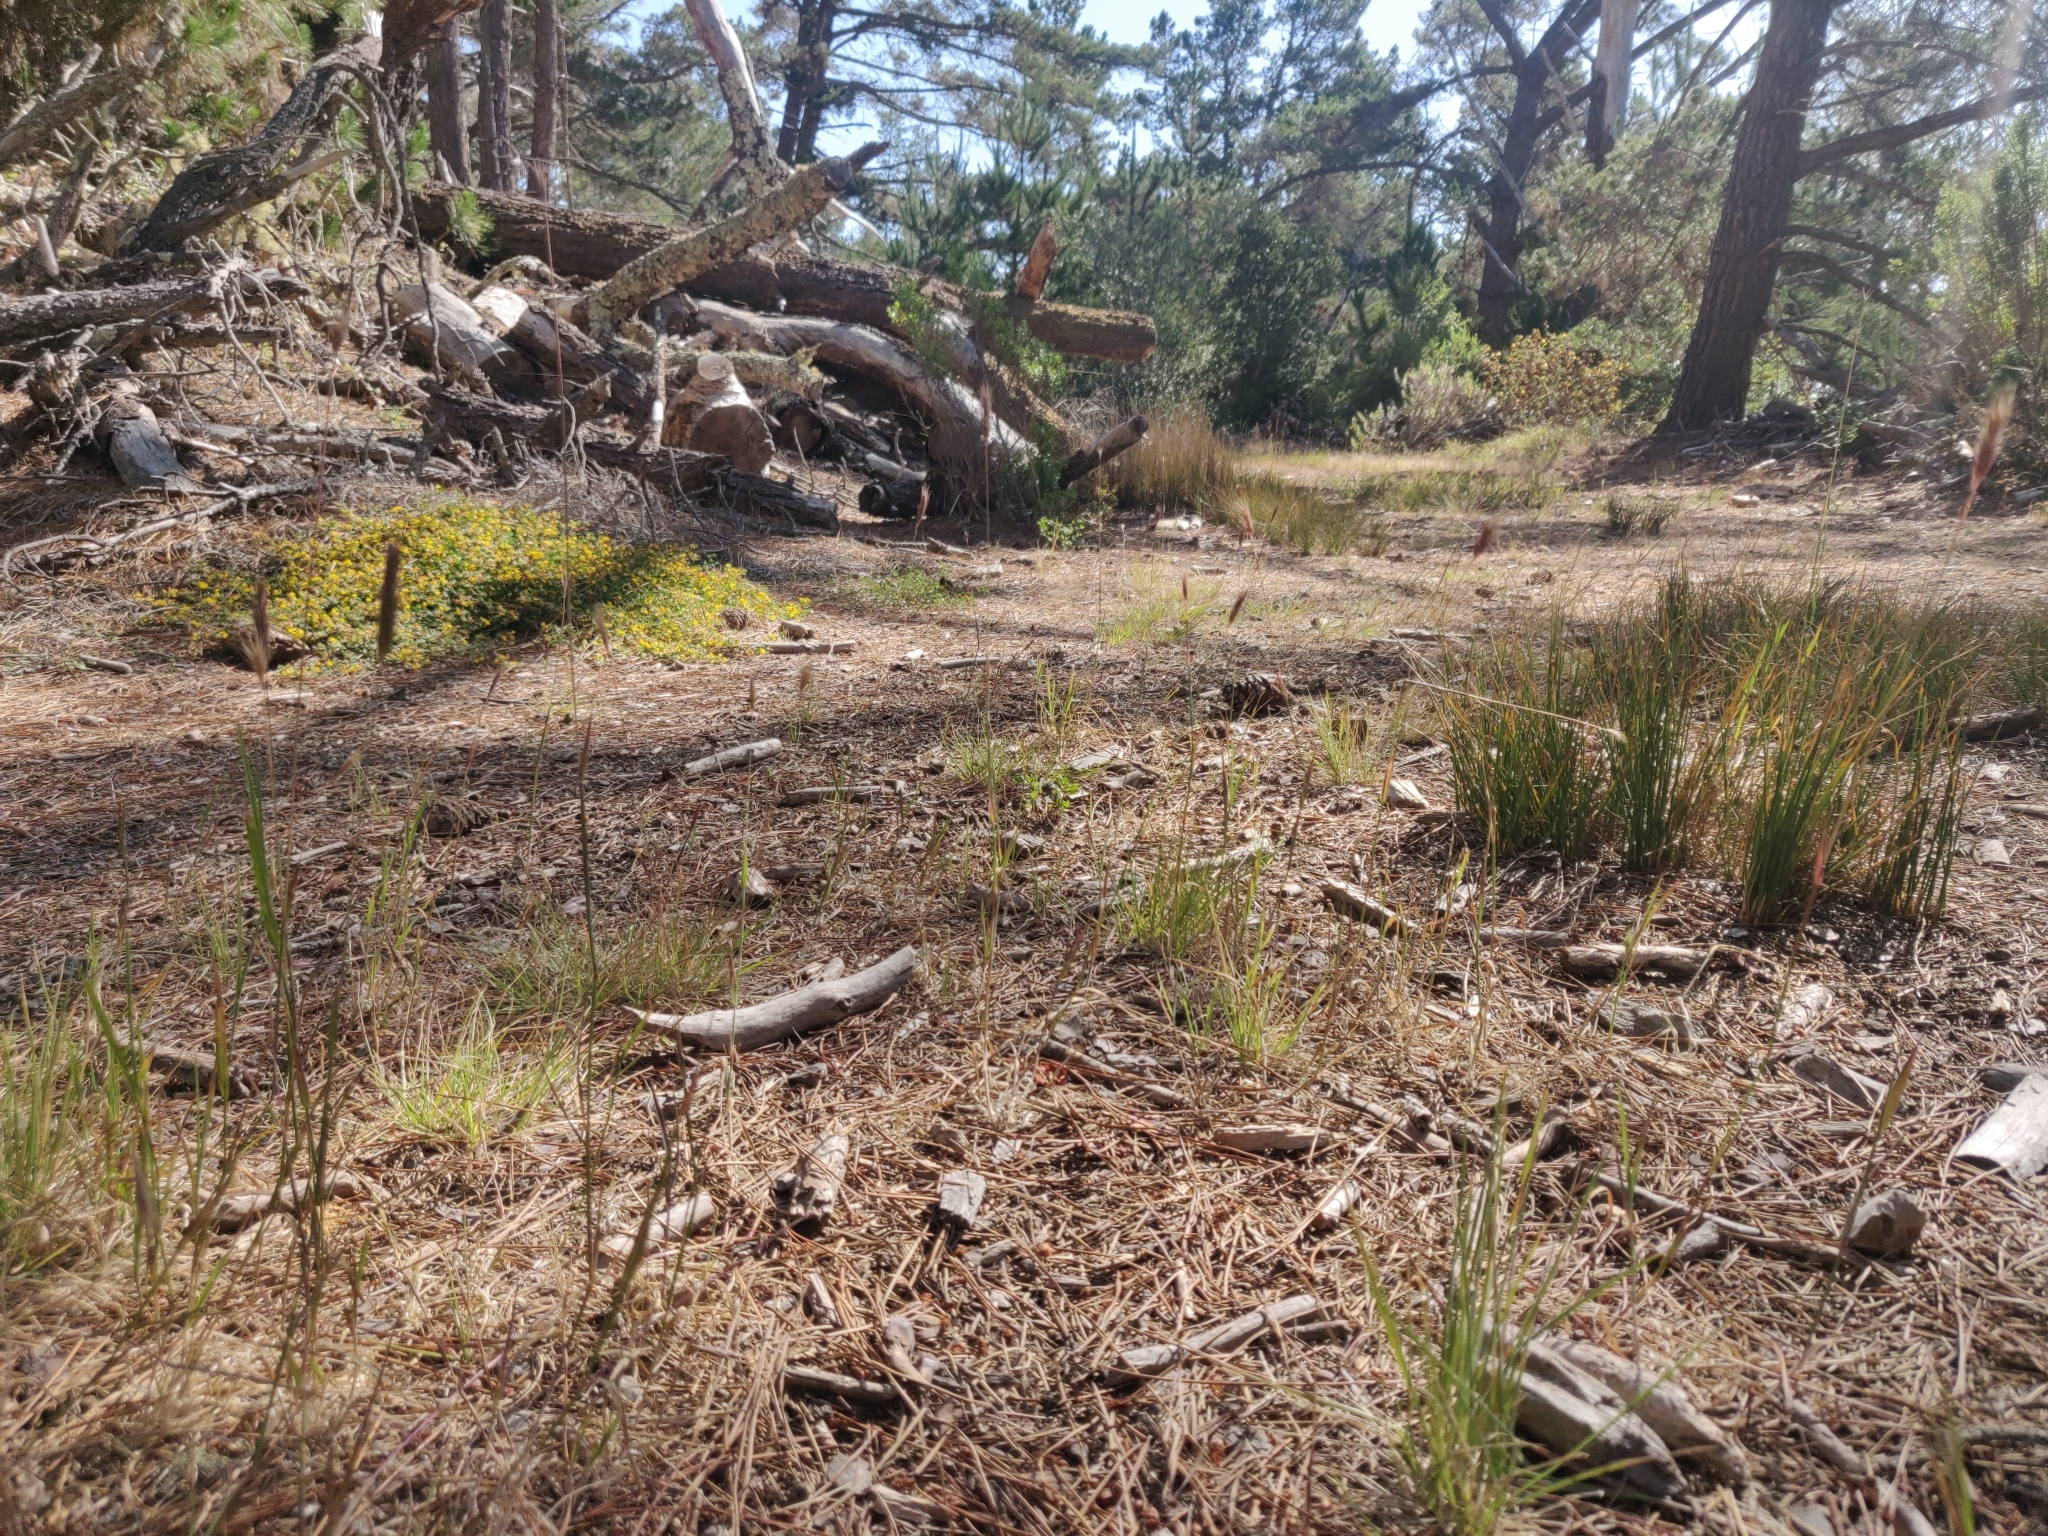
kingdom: Plantae
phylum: Tracheophyta
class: Magnoliopsida
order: Fabales
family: Fabaceae
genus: Acmispon
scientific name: Acmispon junceus
